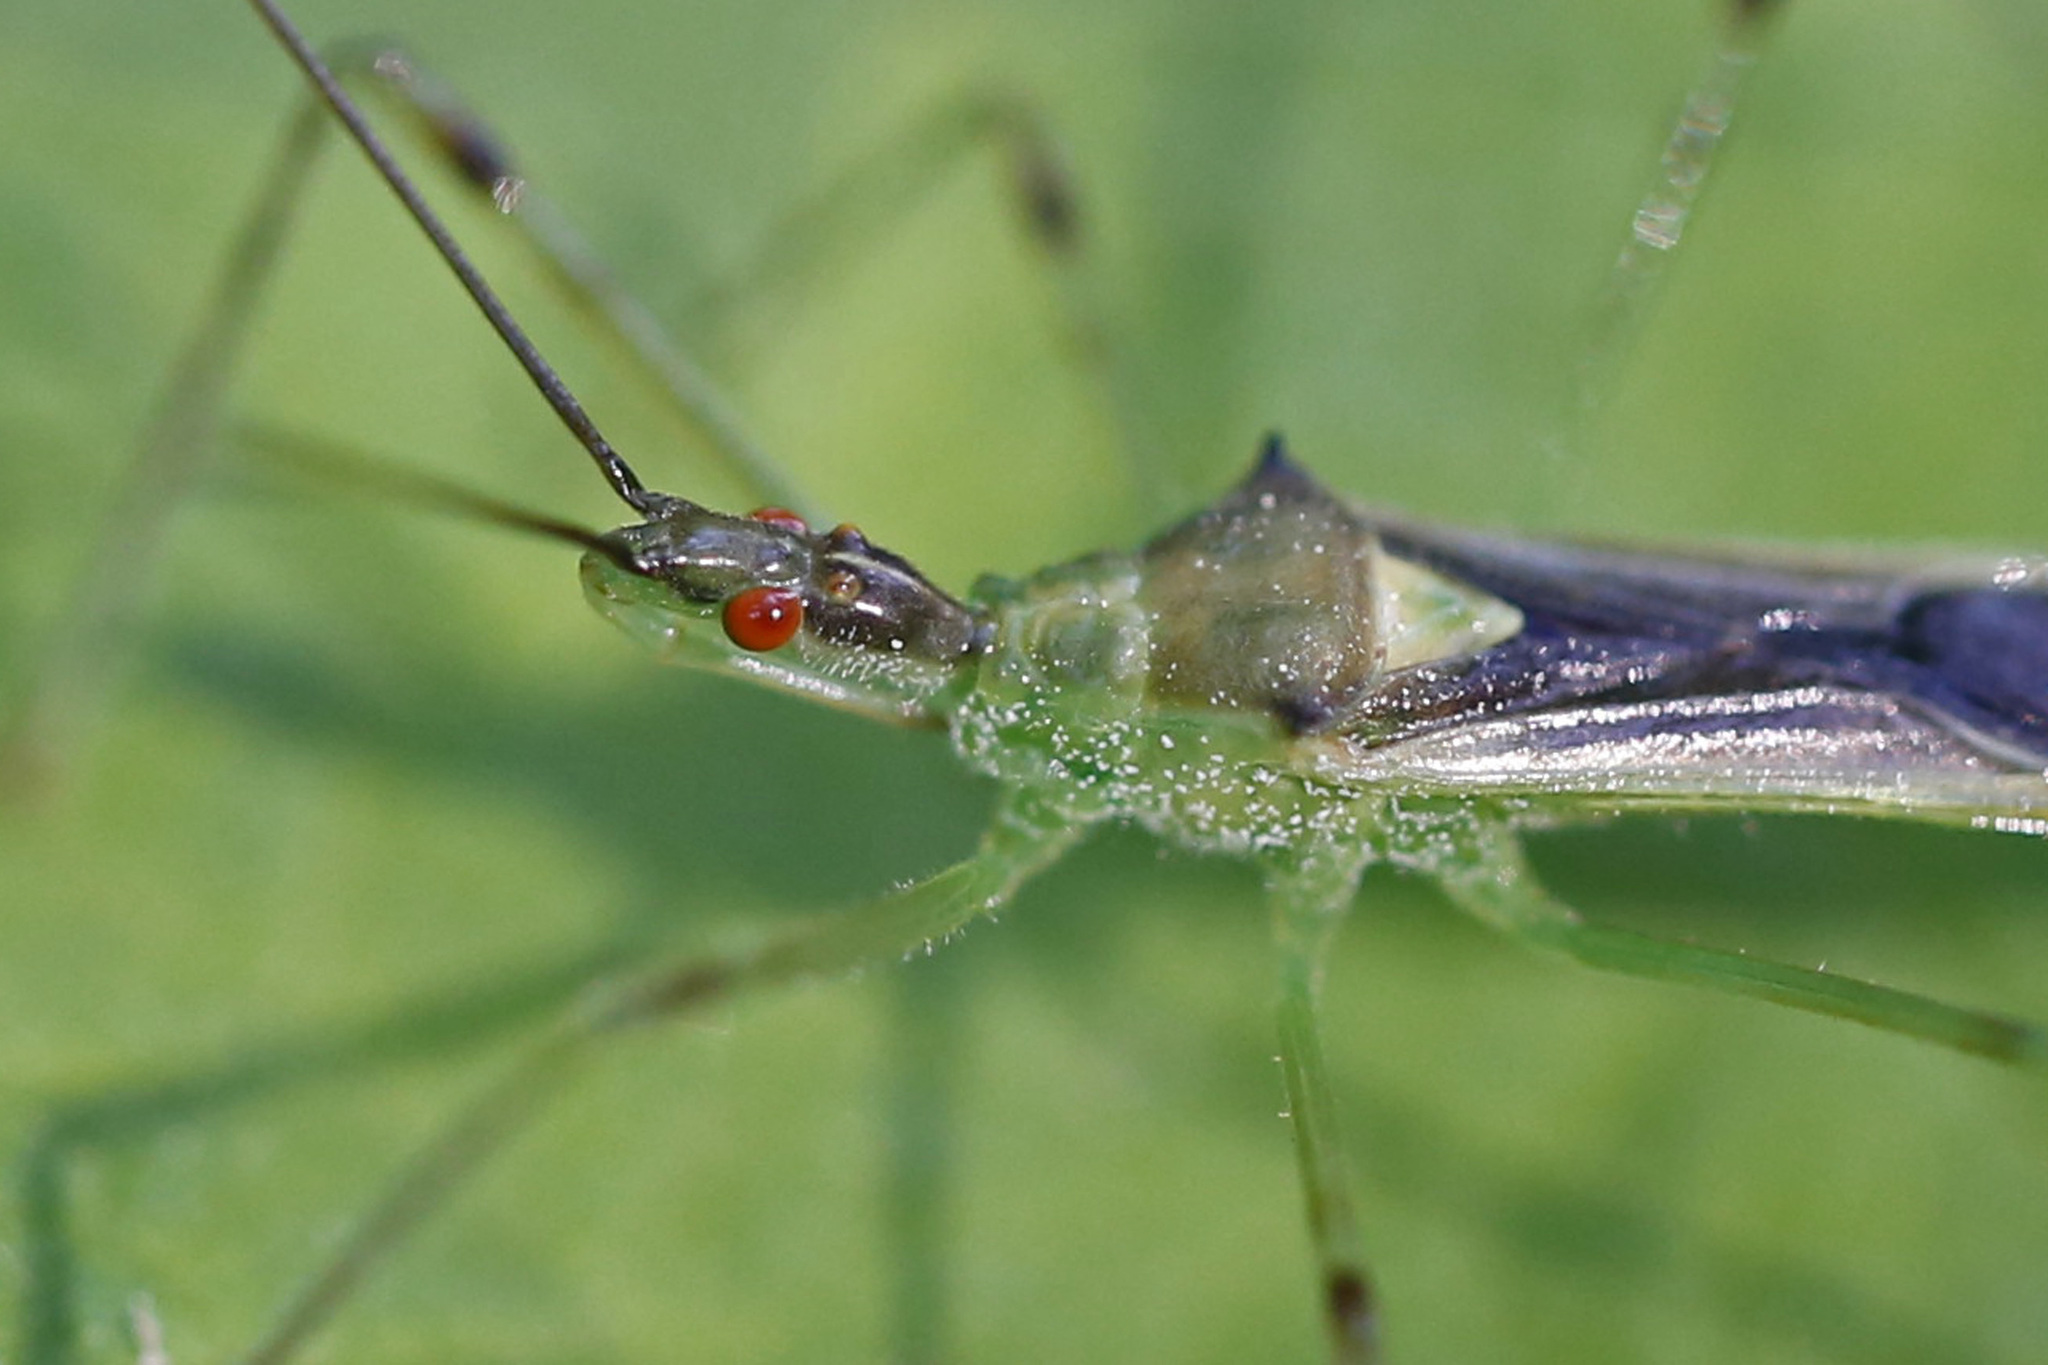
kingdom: Animalia
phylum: Arthropoda
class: Insecta
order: Hemiptera
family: Reduviidae
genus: Zelus
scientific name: Zelus luridus
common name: Pale green assassin bug
